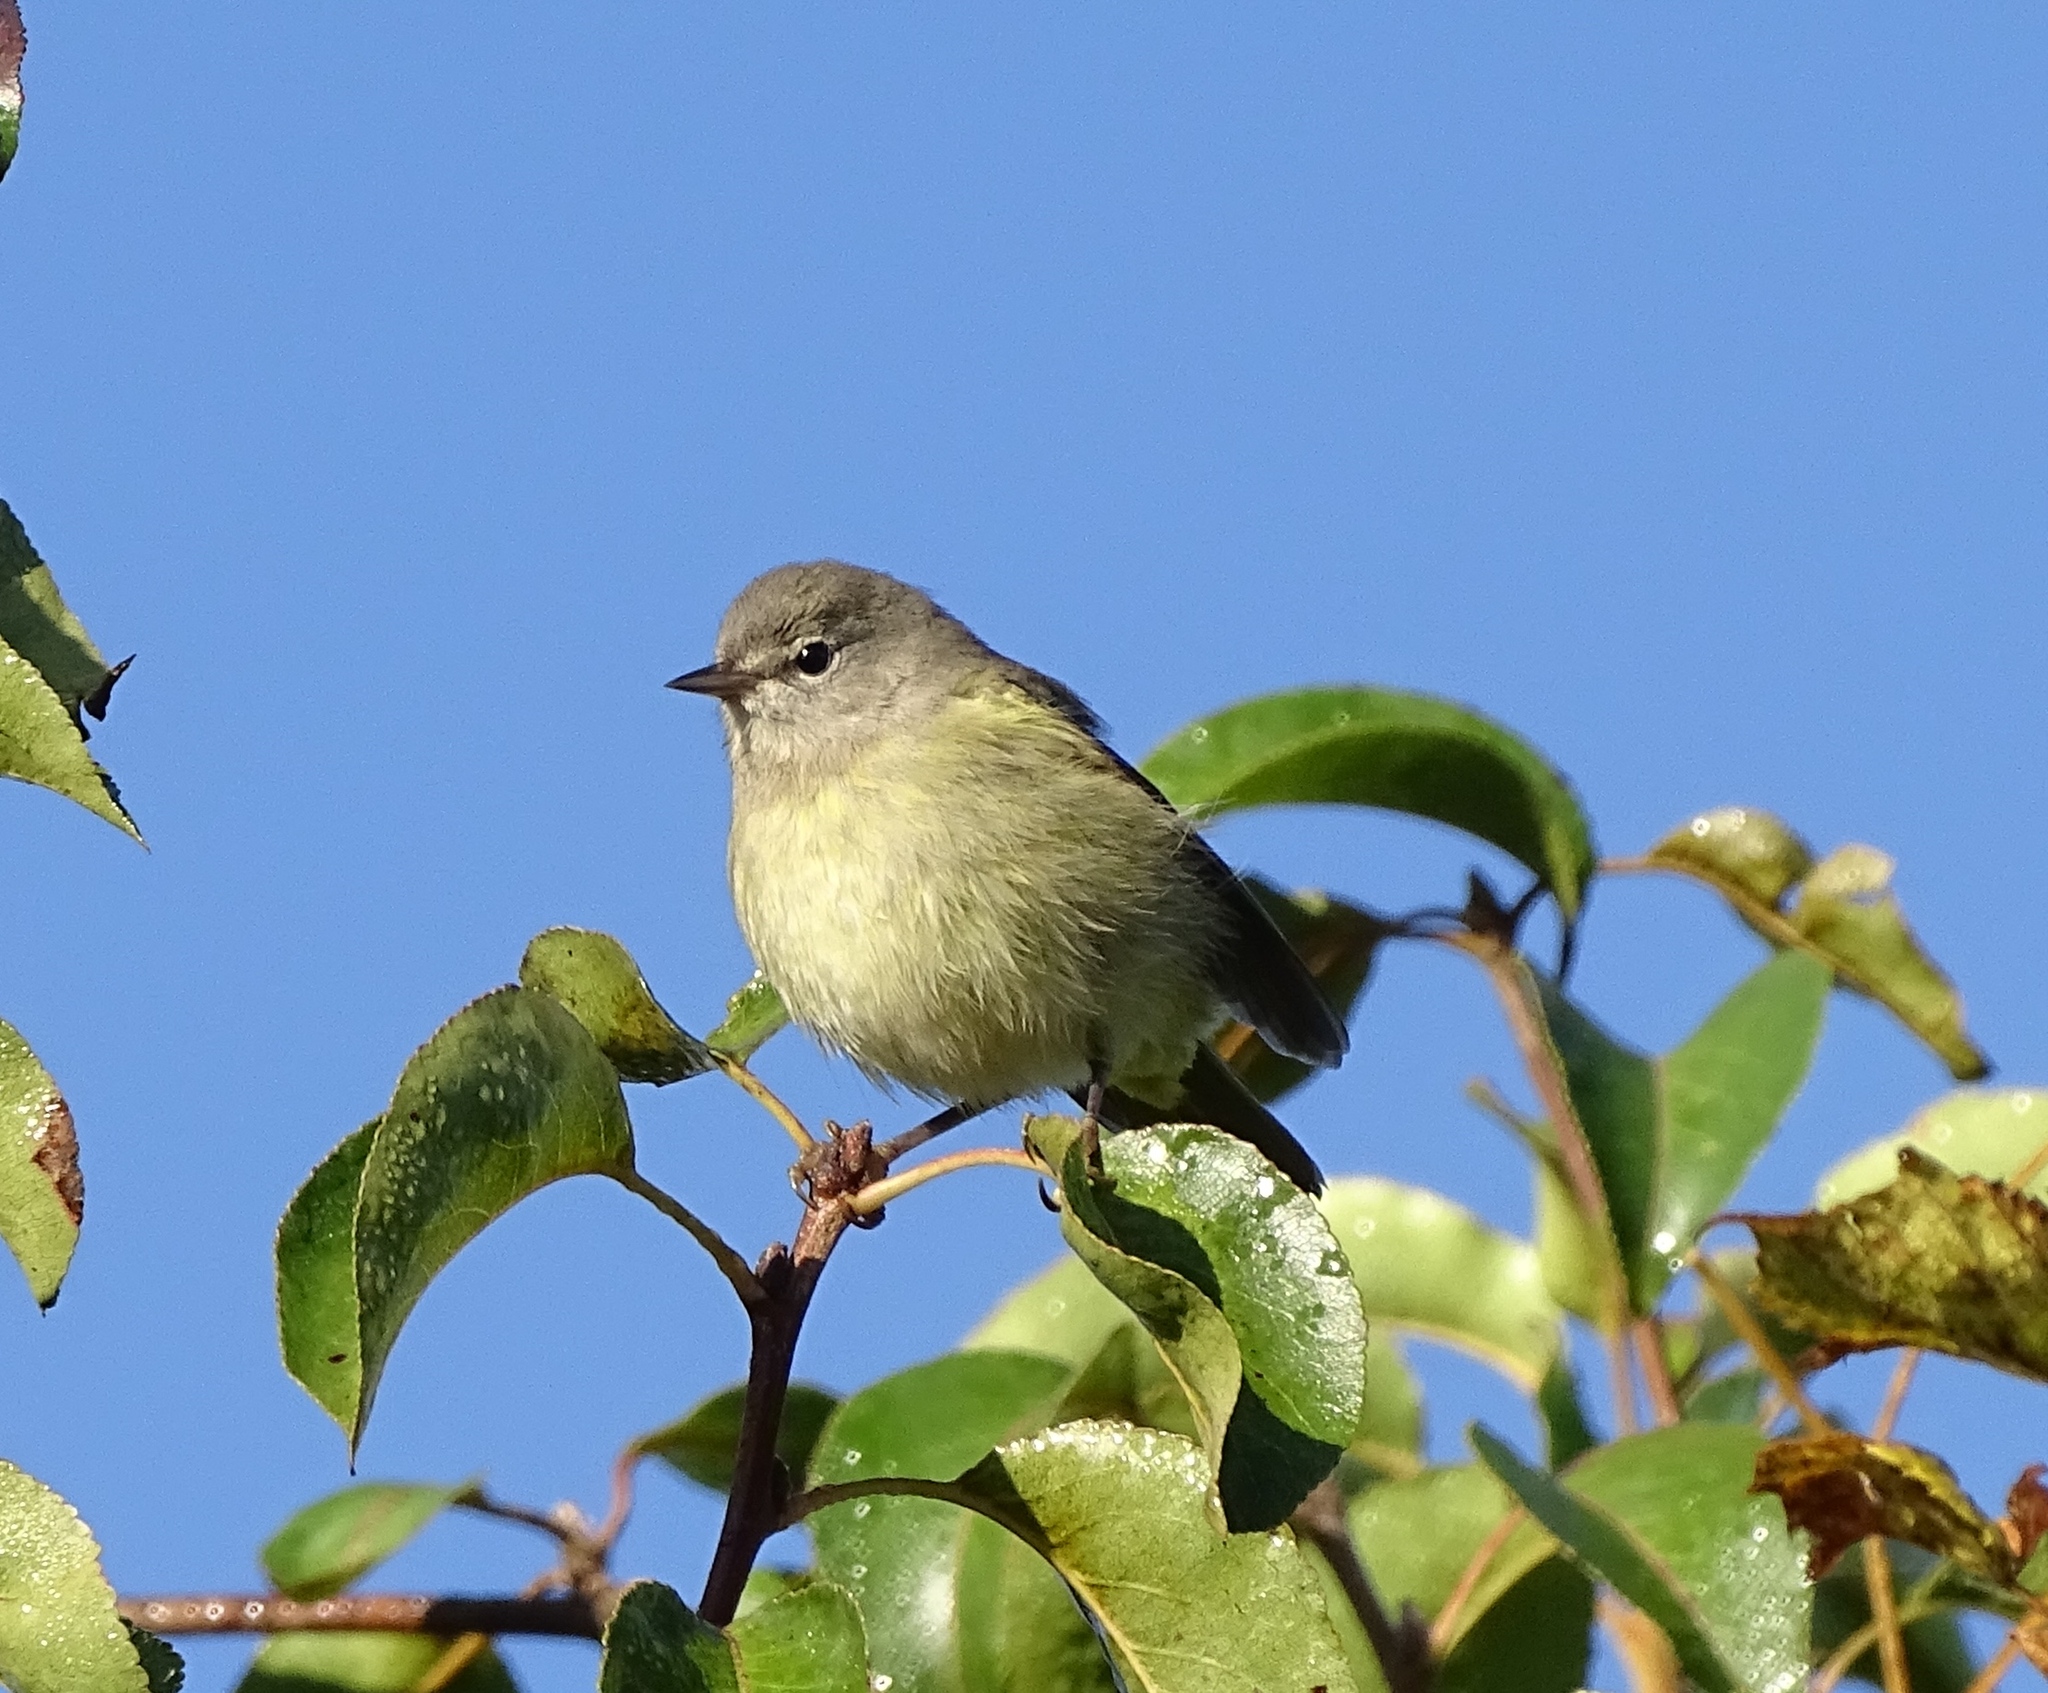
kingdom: Animalia
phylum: Chordata
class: Aves
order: Passeriformes
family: Parulidae
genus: Leiothlypis
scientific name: Leiothlypis celata
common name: Orange-crowned warbler
